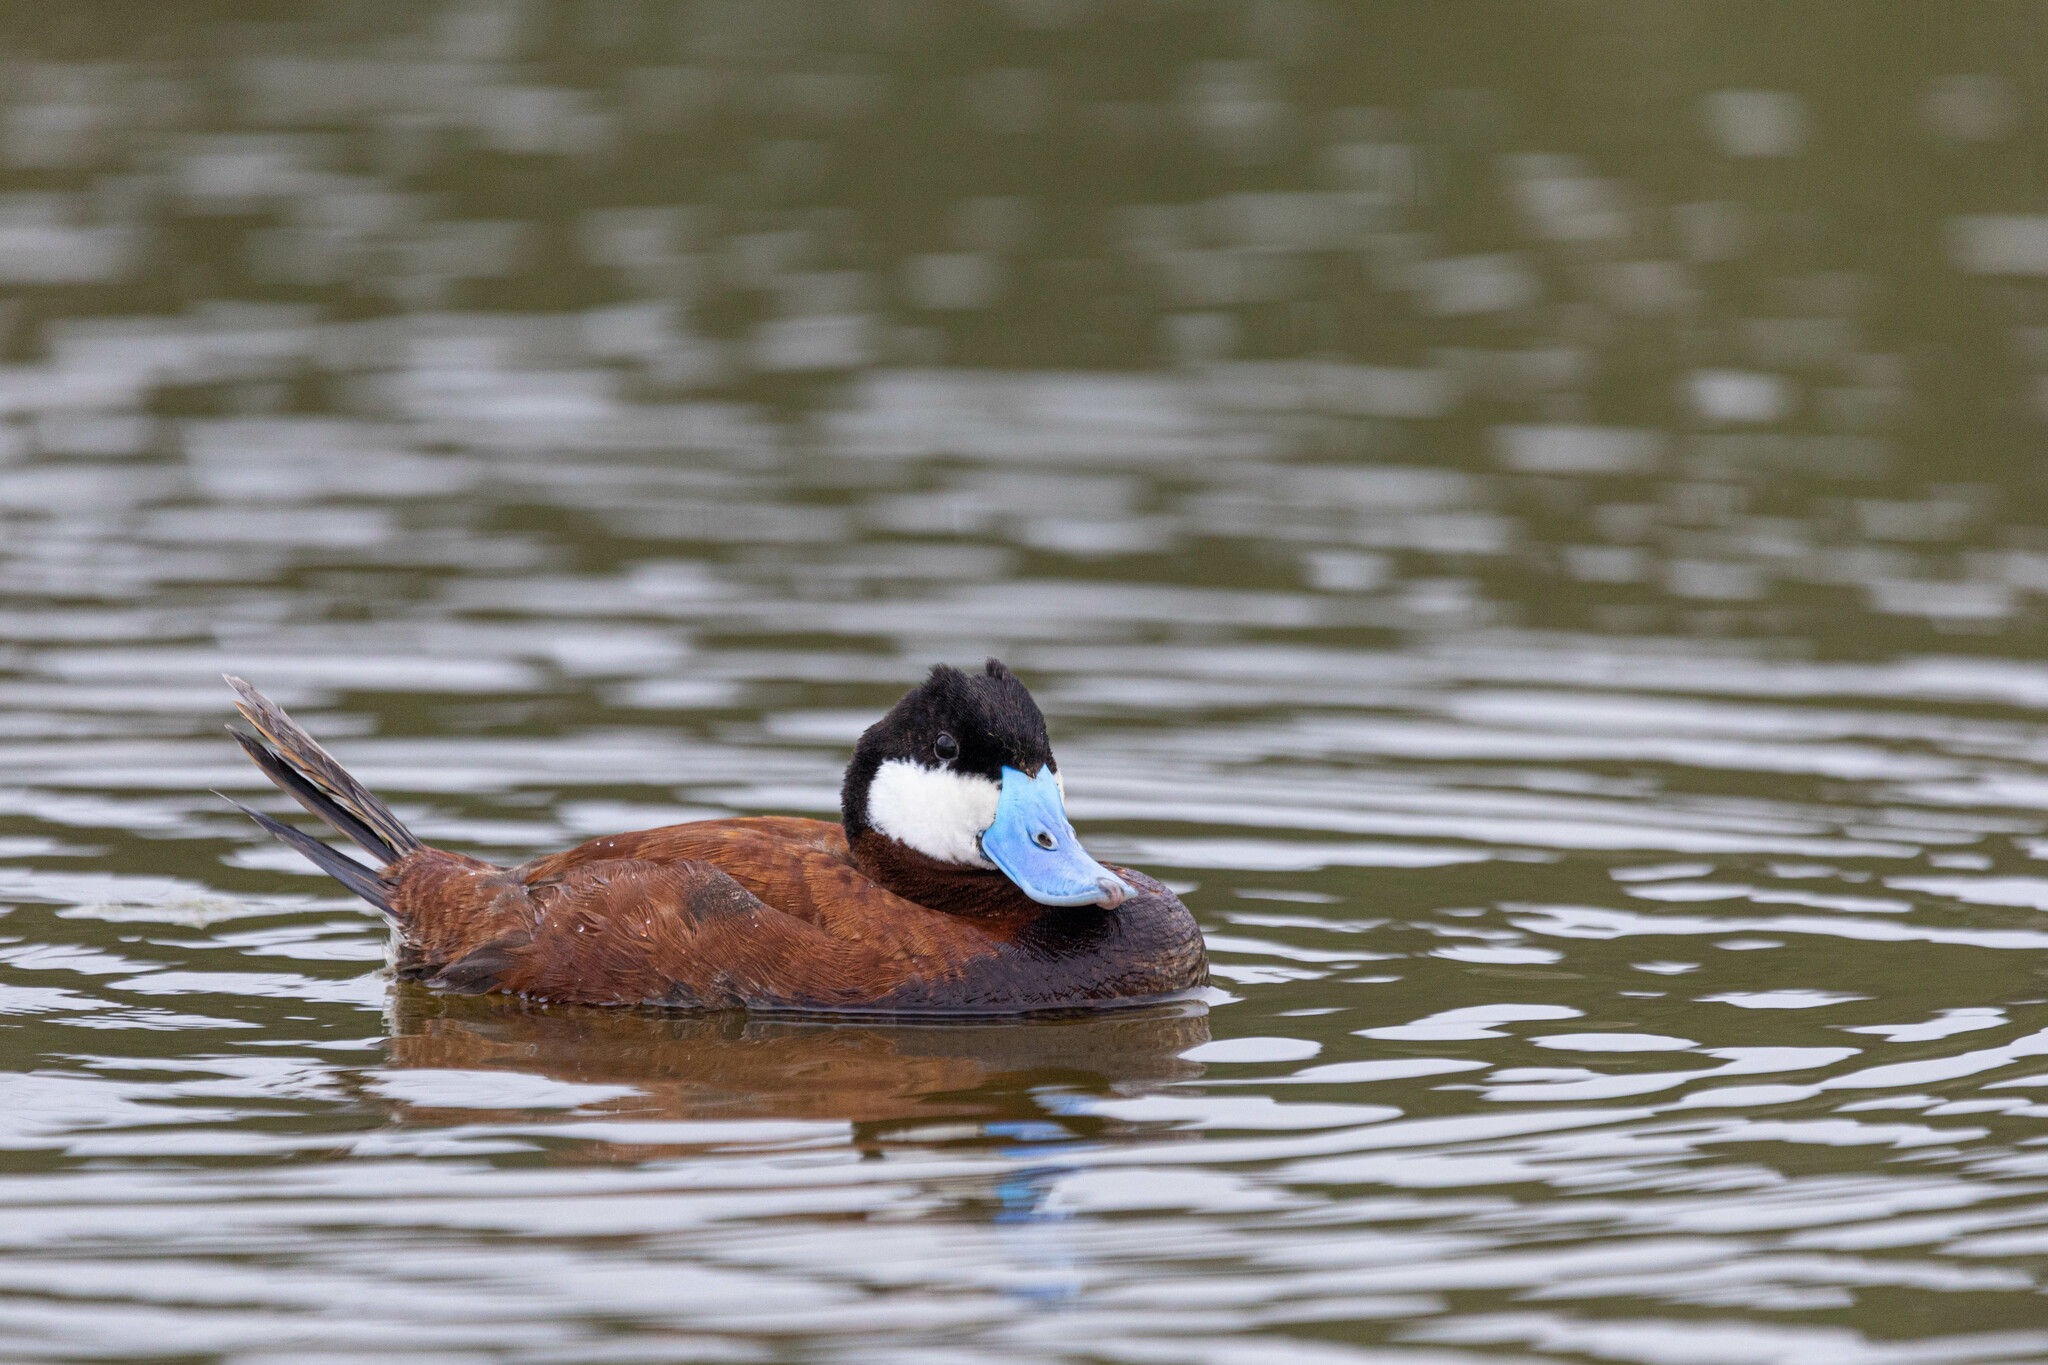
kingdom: Animalia
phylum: Chordata
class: Aves
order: Anseriformes
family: Anatidae
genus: Oxyura
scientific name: Oxyura jamaicensis
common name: Ruddy duck
